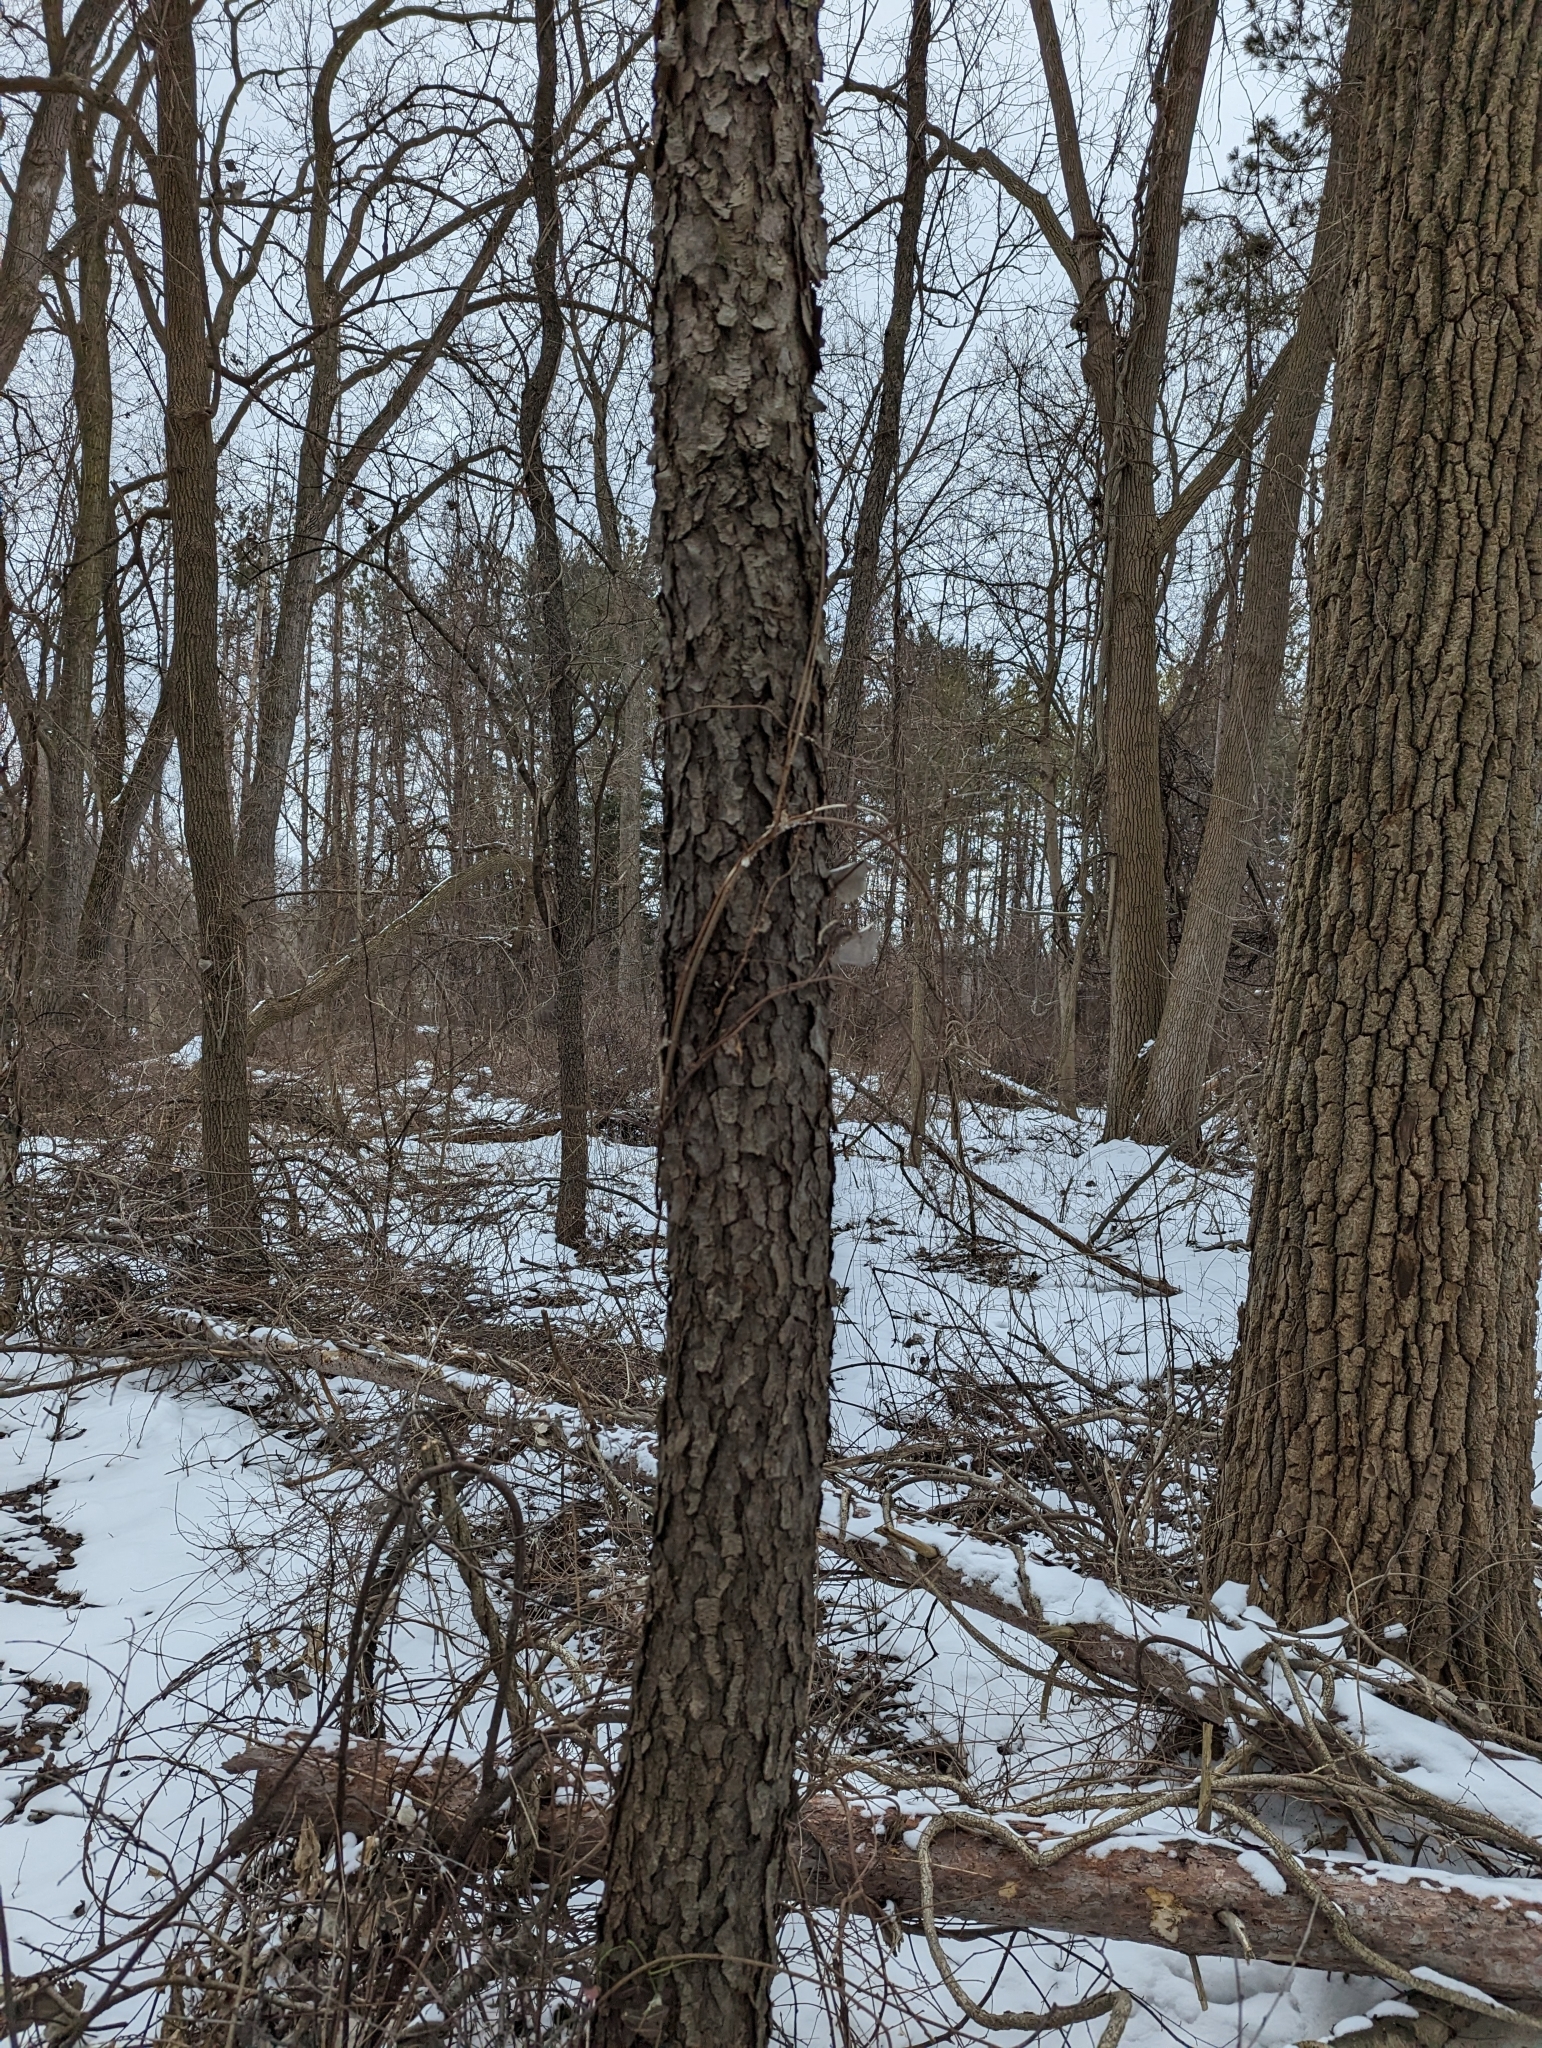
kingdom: Plantae
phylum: Tracheophyta
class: Magnoliopsida
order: Rosales
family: Rosaceae
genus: Prunus
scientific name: Prunus serotina
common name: Black cherry
